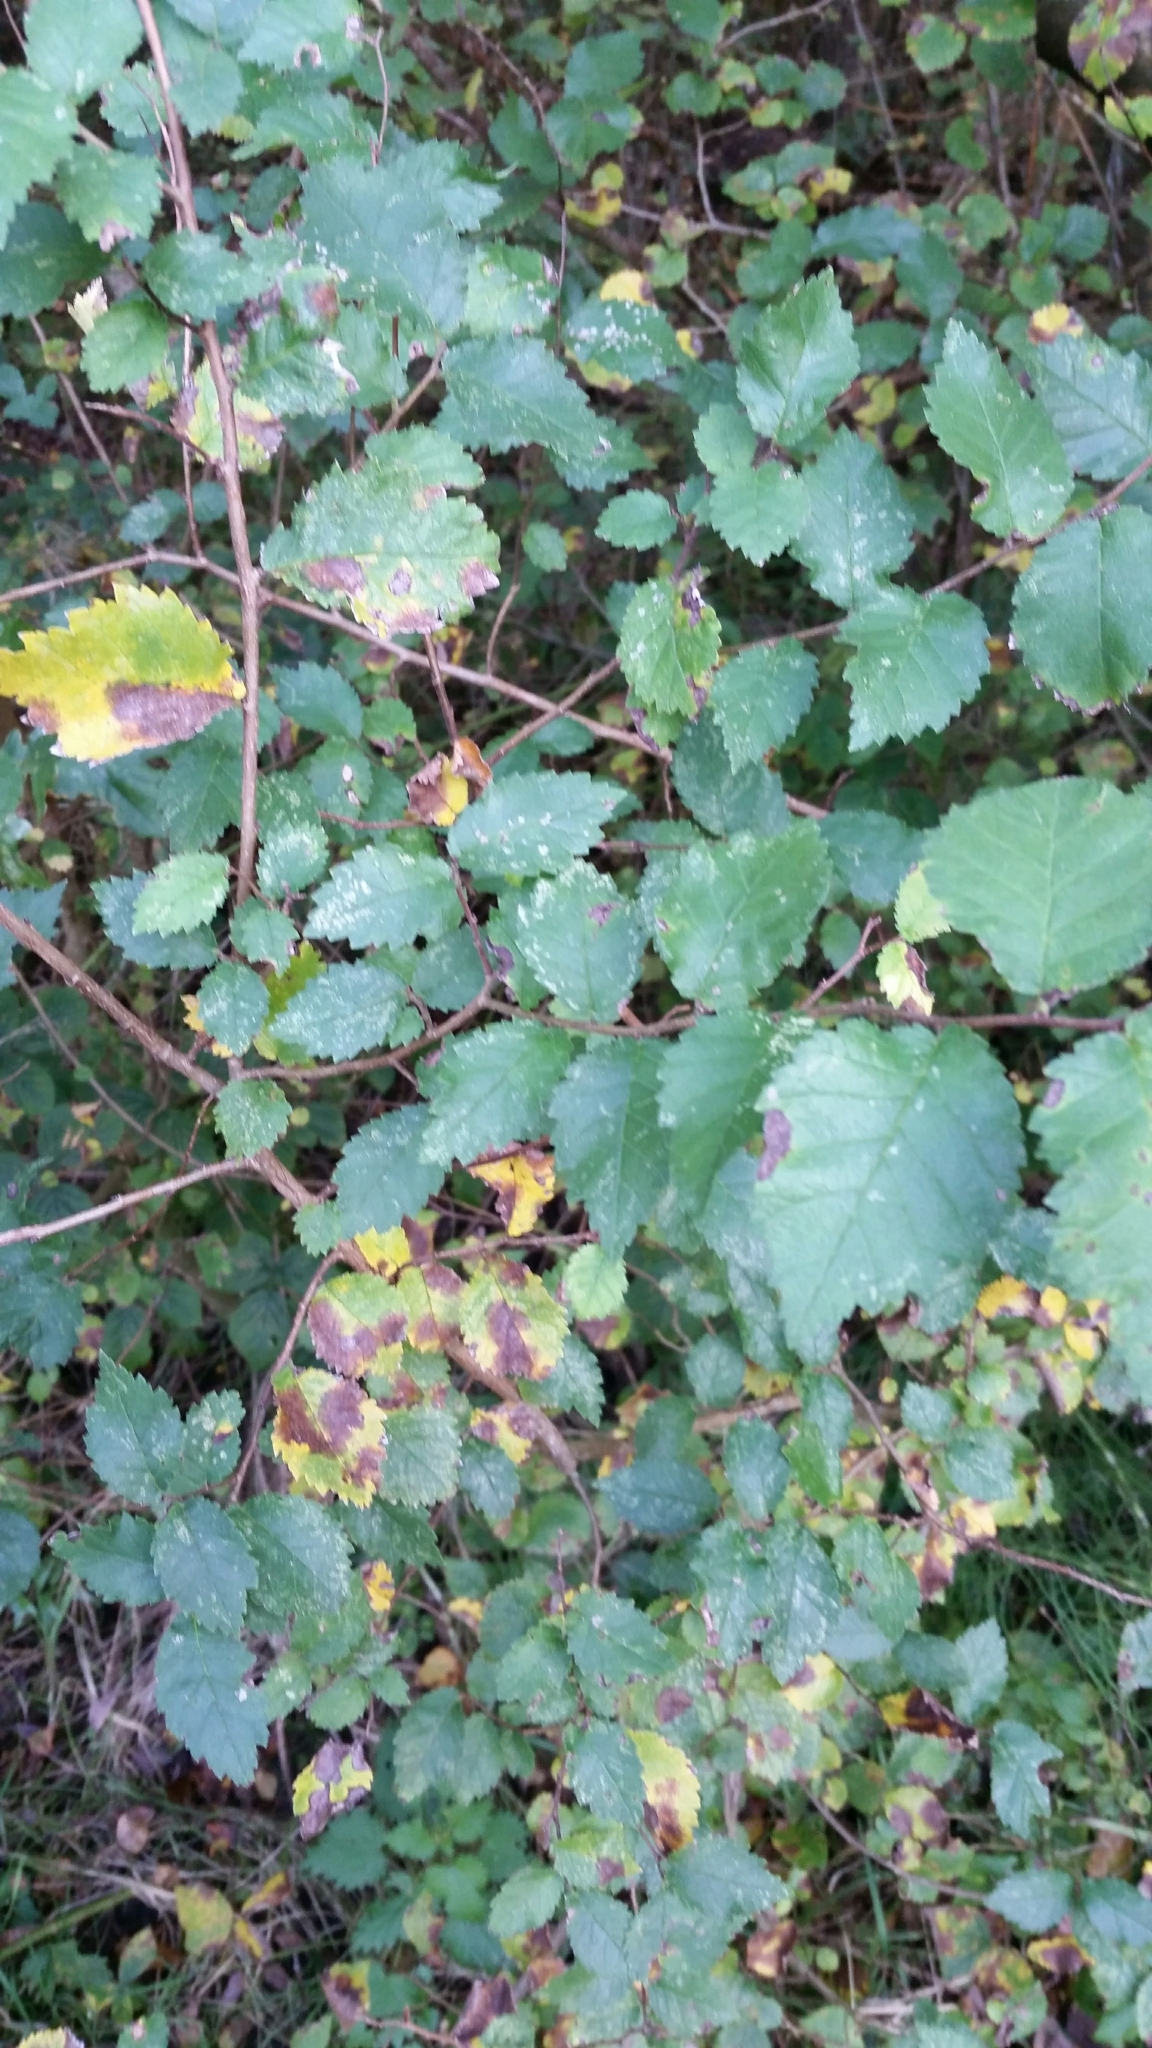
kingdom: Plantae
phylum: Tracheophyta
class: Magnoliopsida
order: Rosales
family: Ulmaceae
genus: Ulmus
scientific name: Ulmus minor
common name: Small-leaved elm
